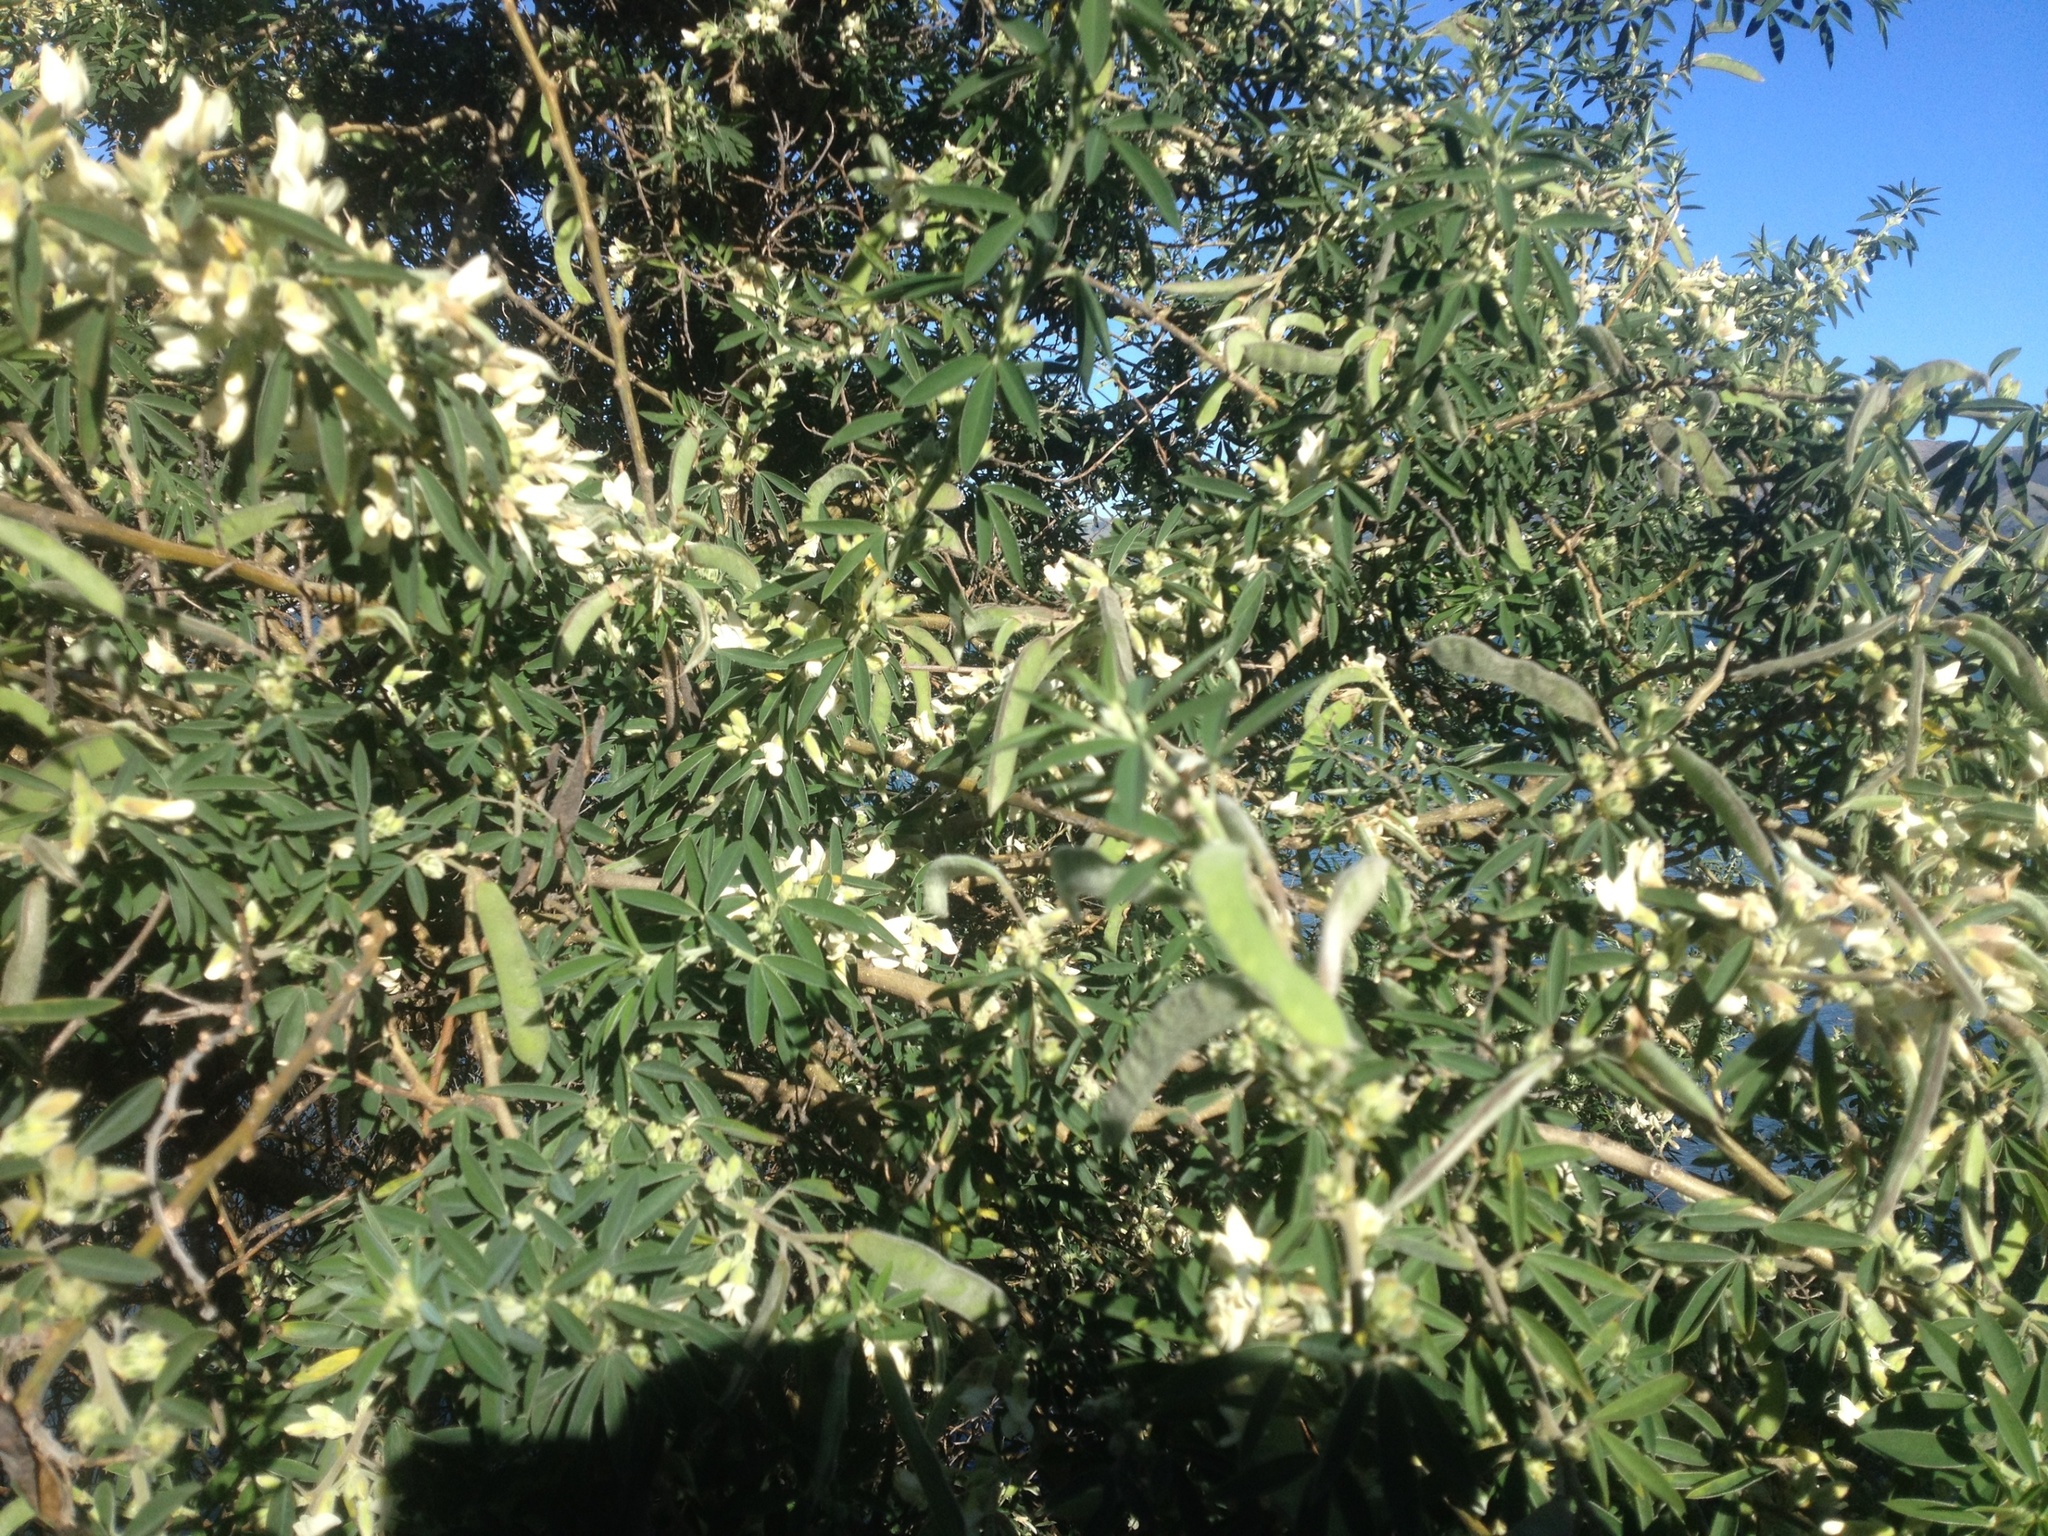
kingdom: Plantae
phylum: Tracheophyta
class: Magnoliopsida
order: Fabales
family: Fabaceae
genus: Chamaecytisus
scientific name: Chamaecytisus prolifer
